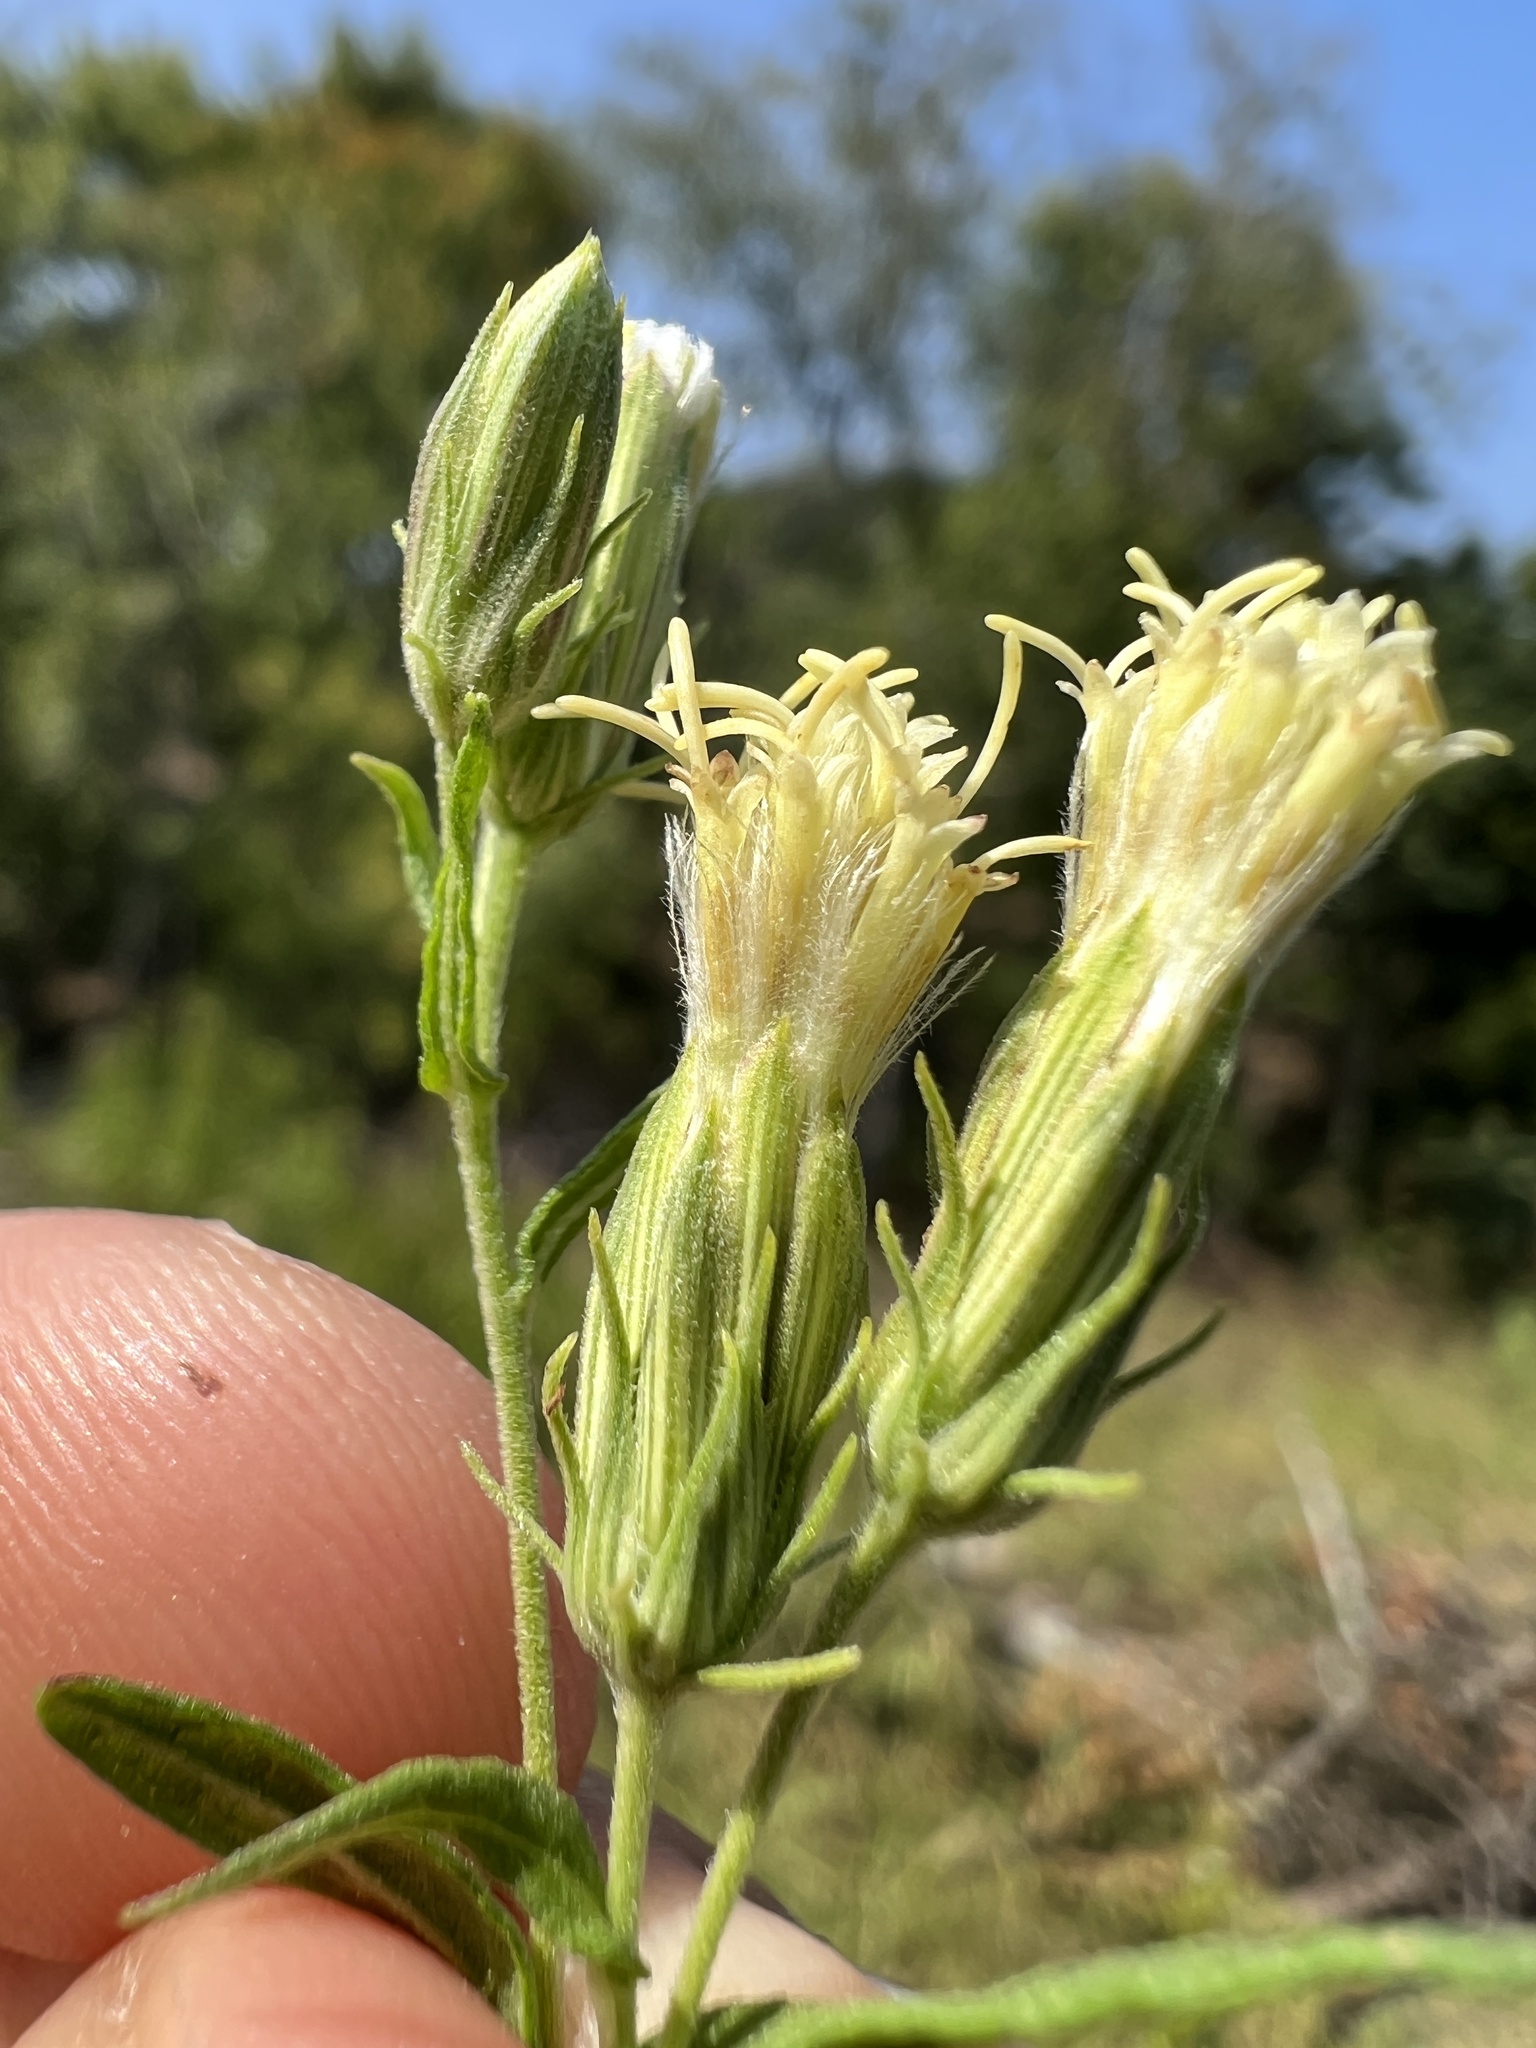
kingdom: Plantae
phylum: Tracheophyta
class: Magnoliopsida
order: Asterales
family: Asteraceae
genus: Brickellia
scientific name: Brickellia ozarkana
